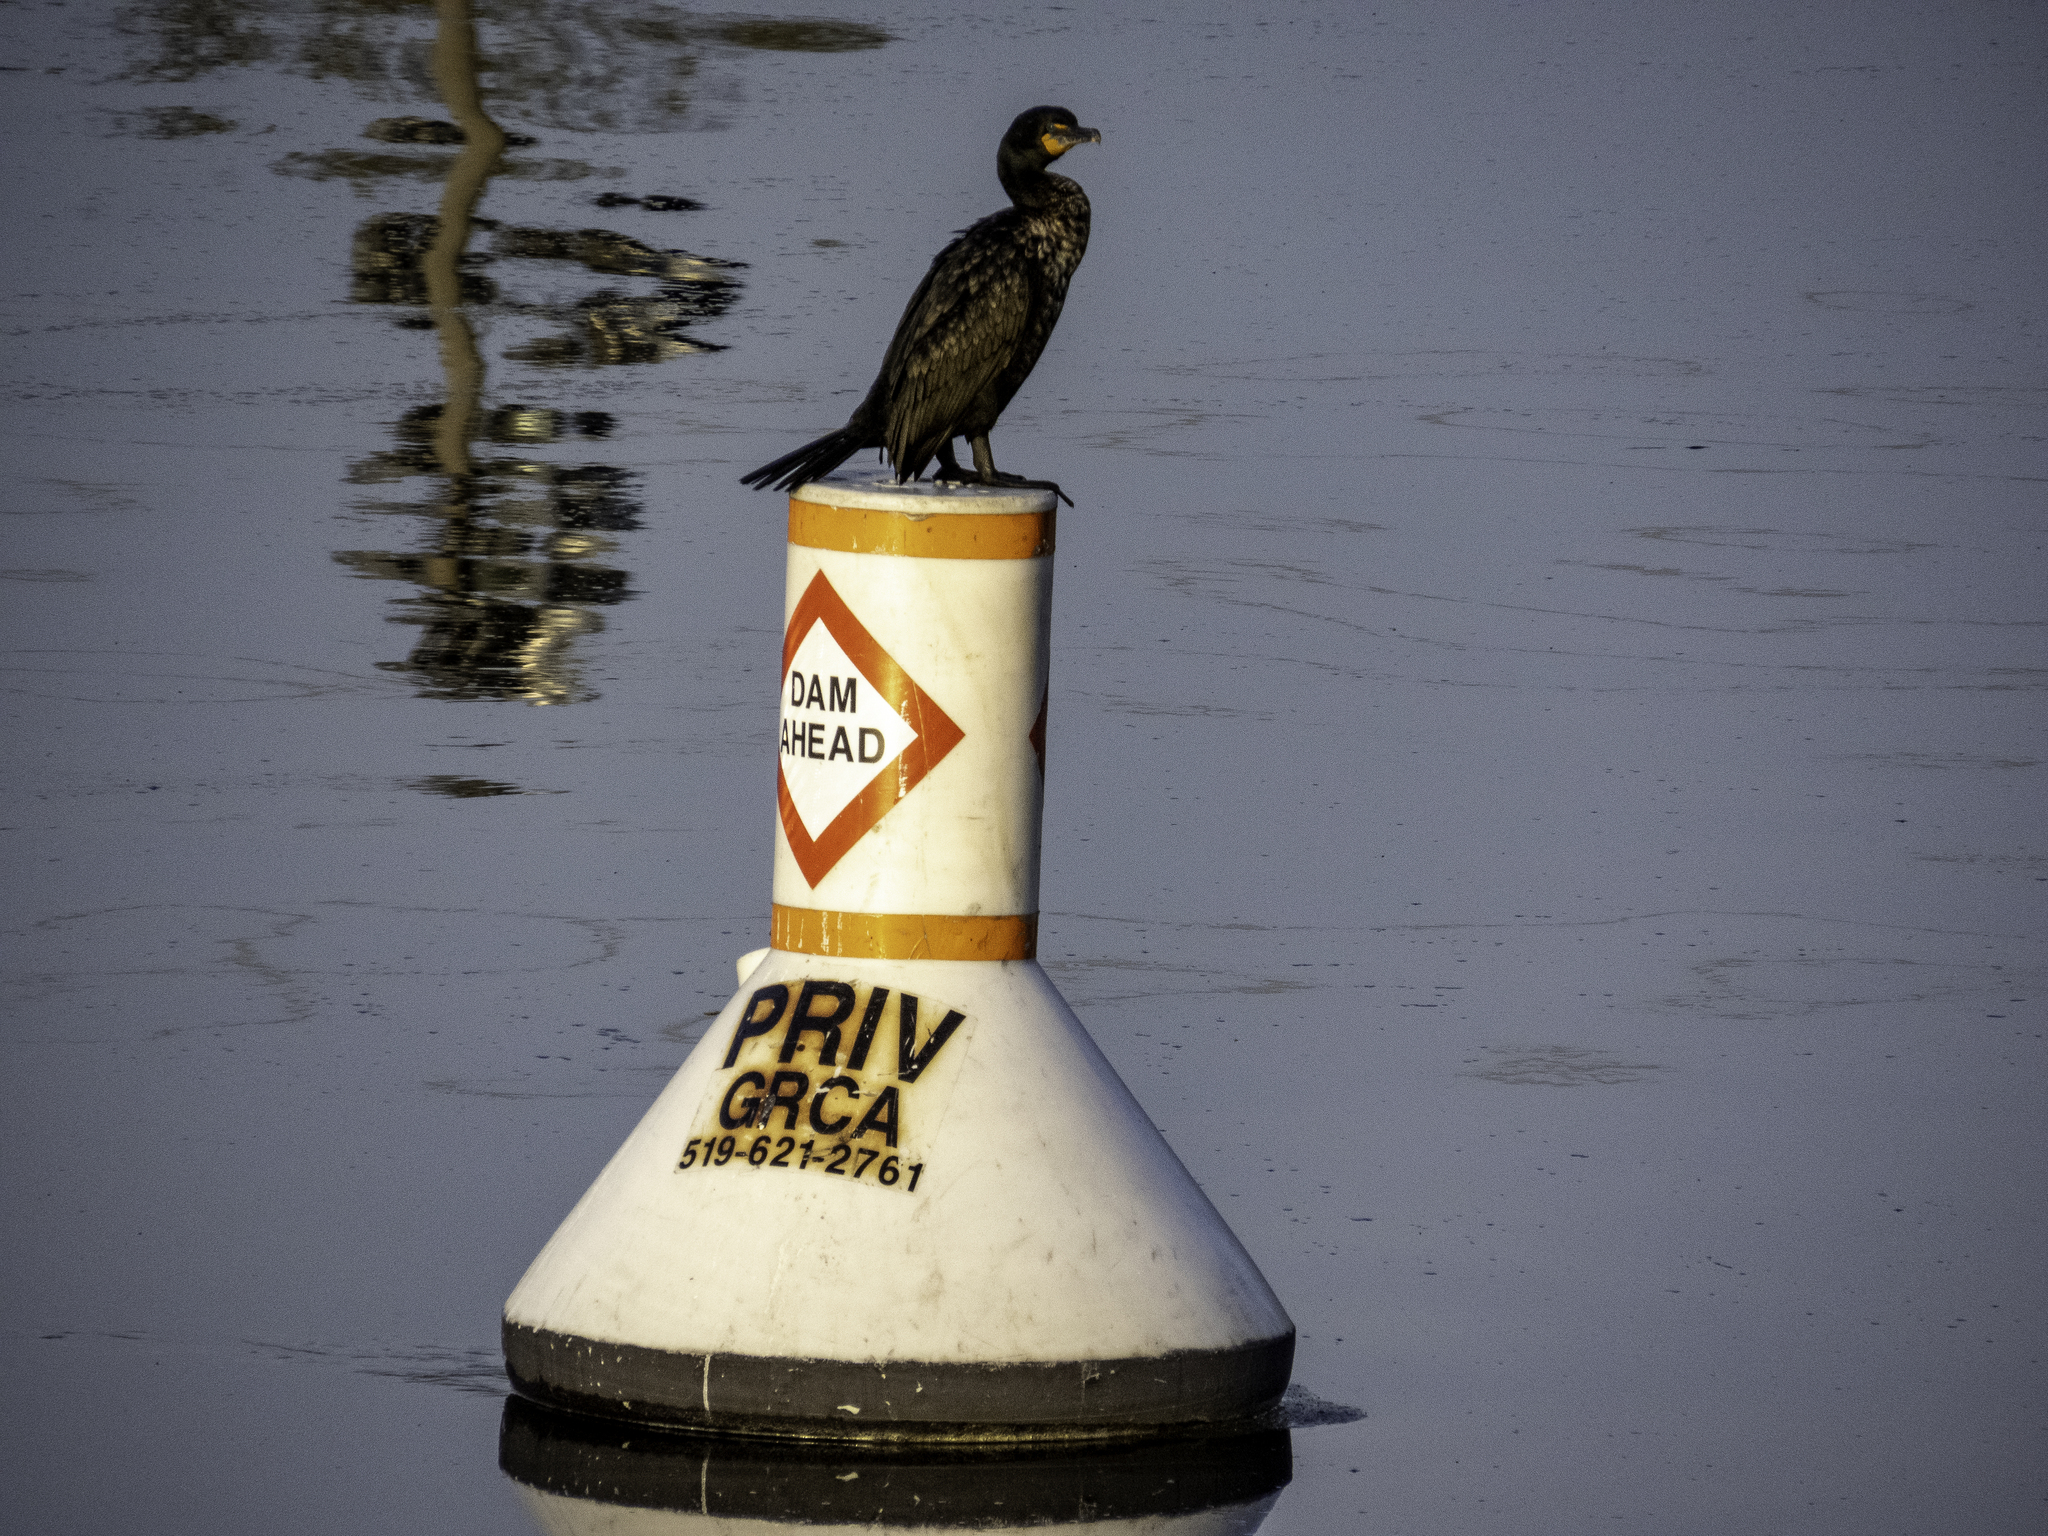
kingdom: Animalia
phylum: Chordata
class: Aves
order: Suliformes
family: Phalacrocoracidae
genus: Phalacrocorax
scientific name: Phalacrocorax auritus
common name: Double-crested cormorant
